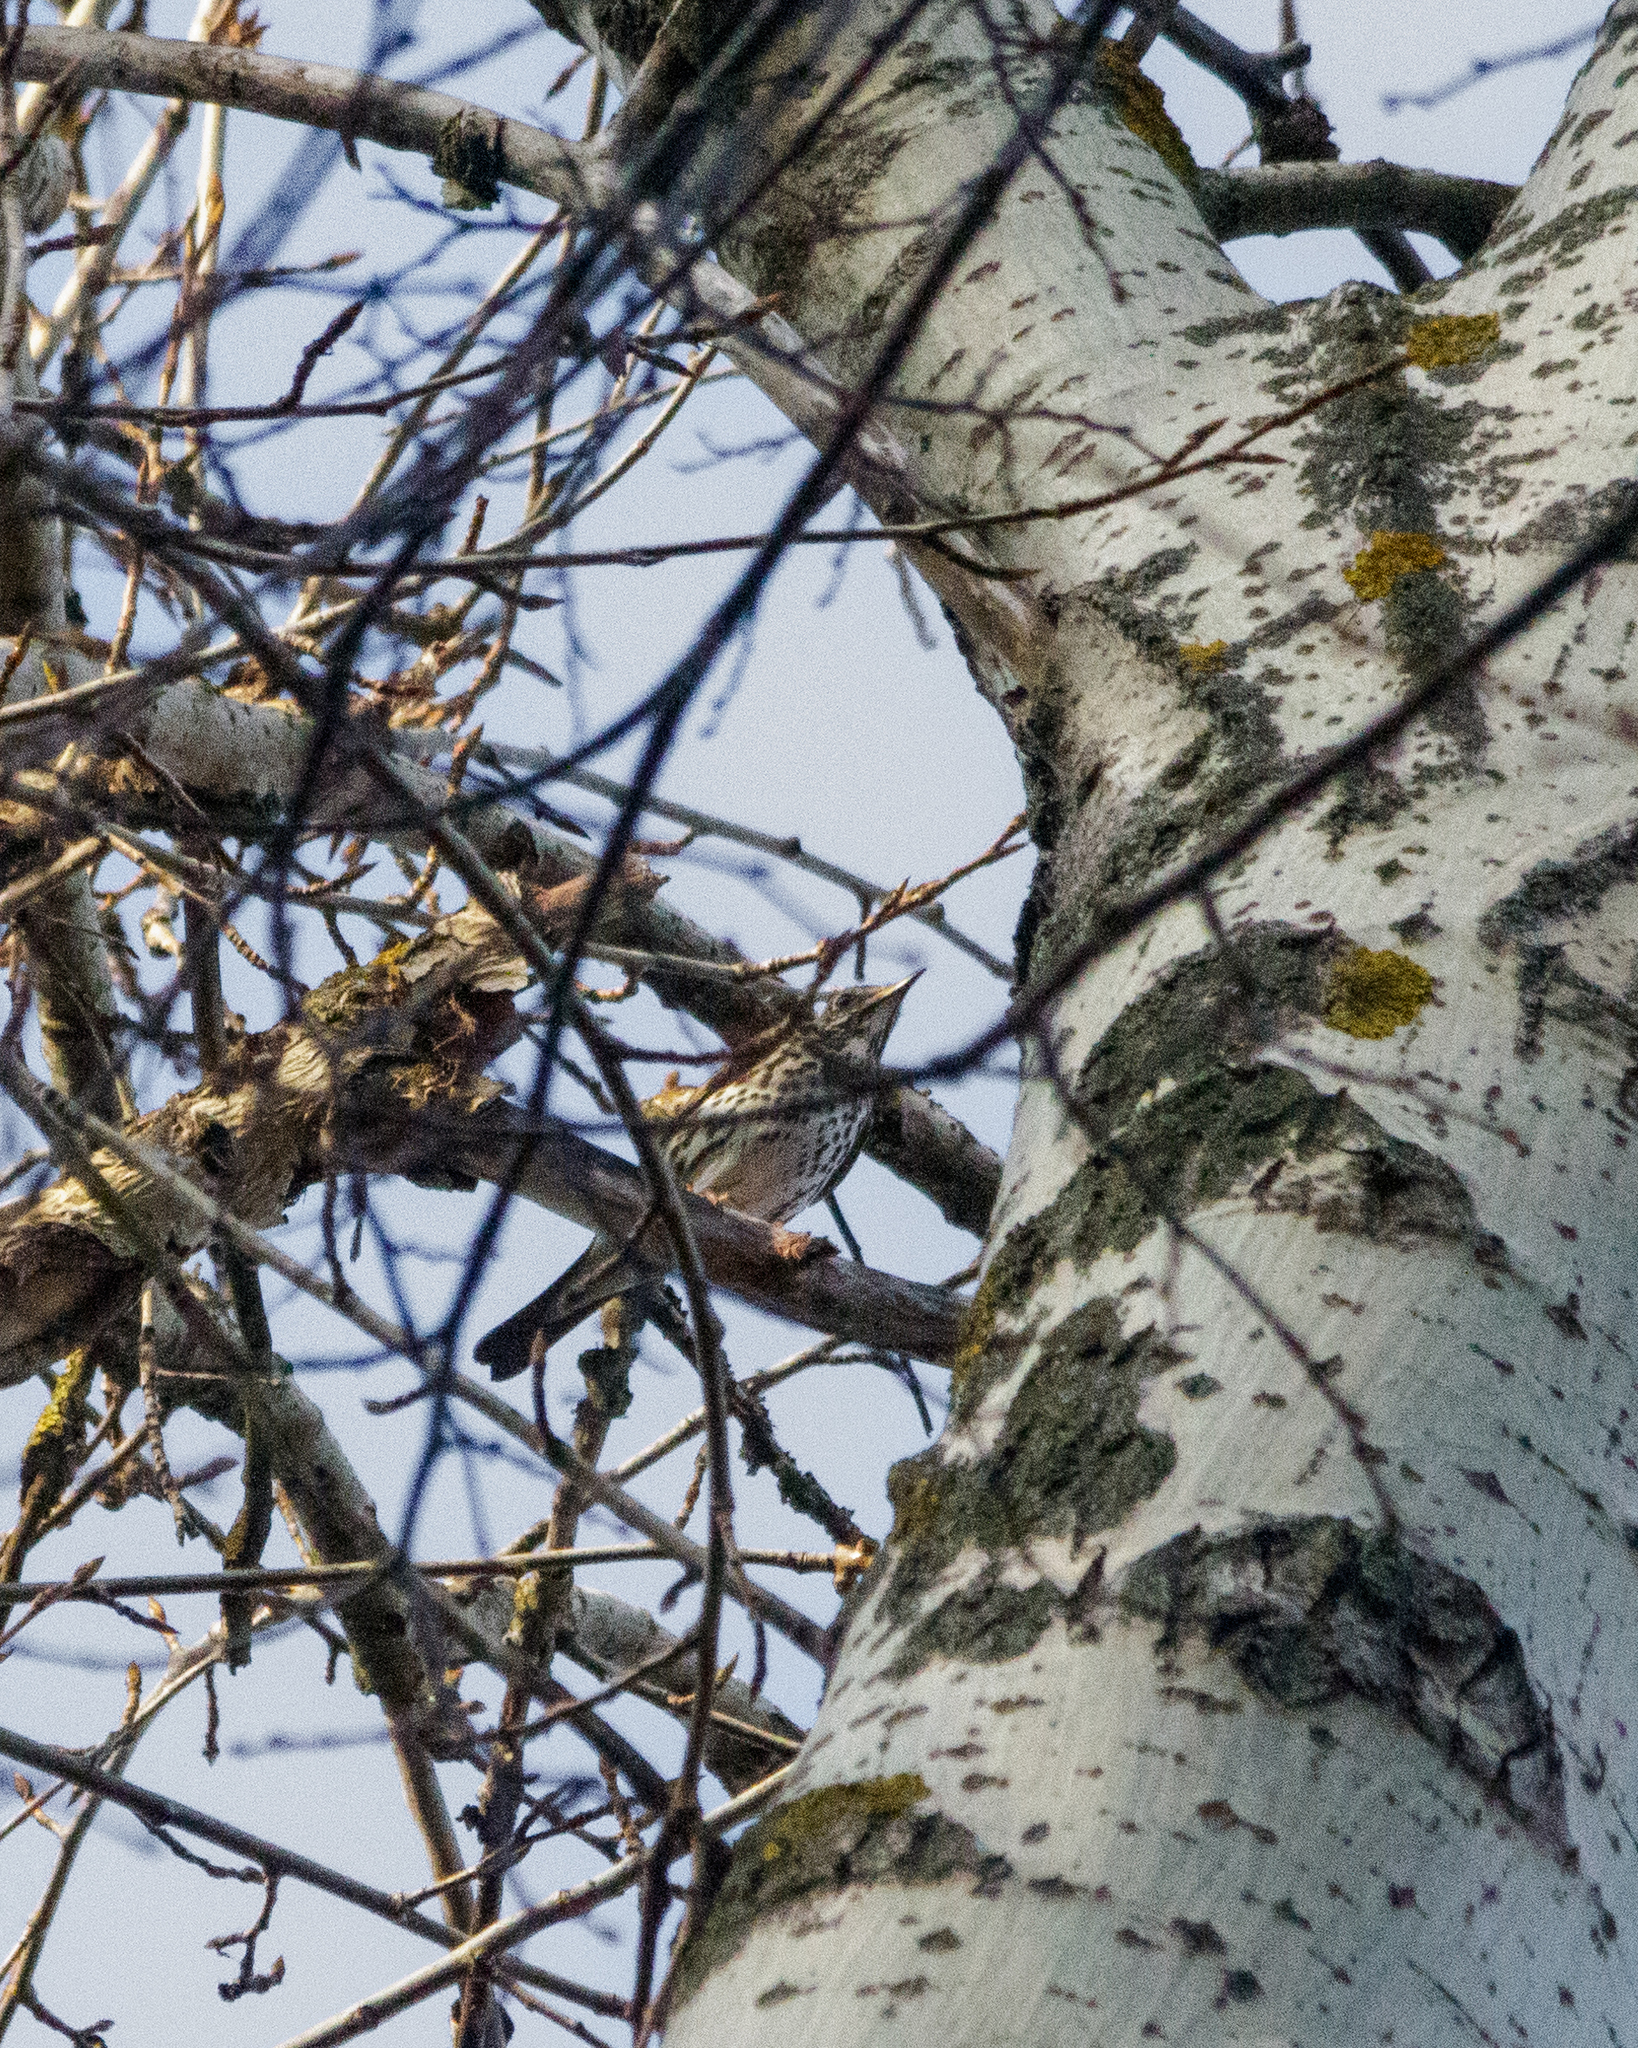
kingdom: Animalia
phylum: Chordata
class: Aves
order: Passeriformes
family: Turdidae
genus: Turdus
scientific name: Turdus philomelos
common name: Song thrush
